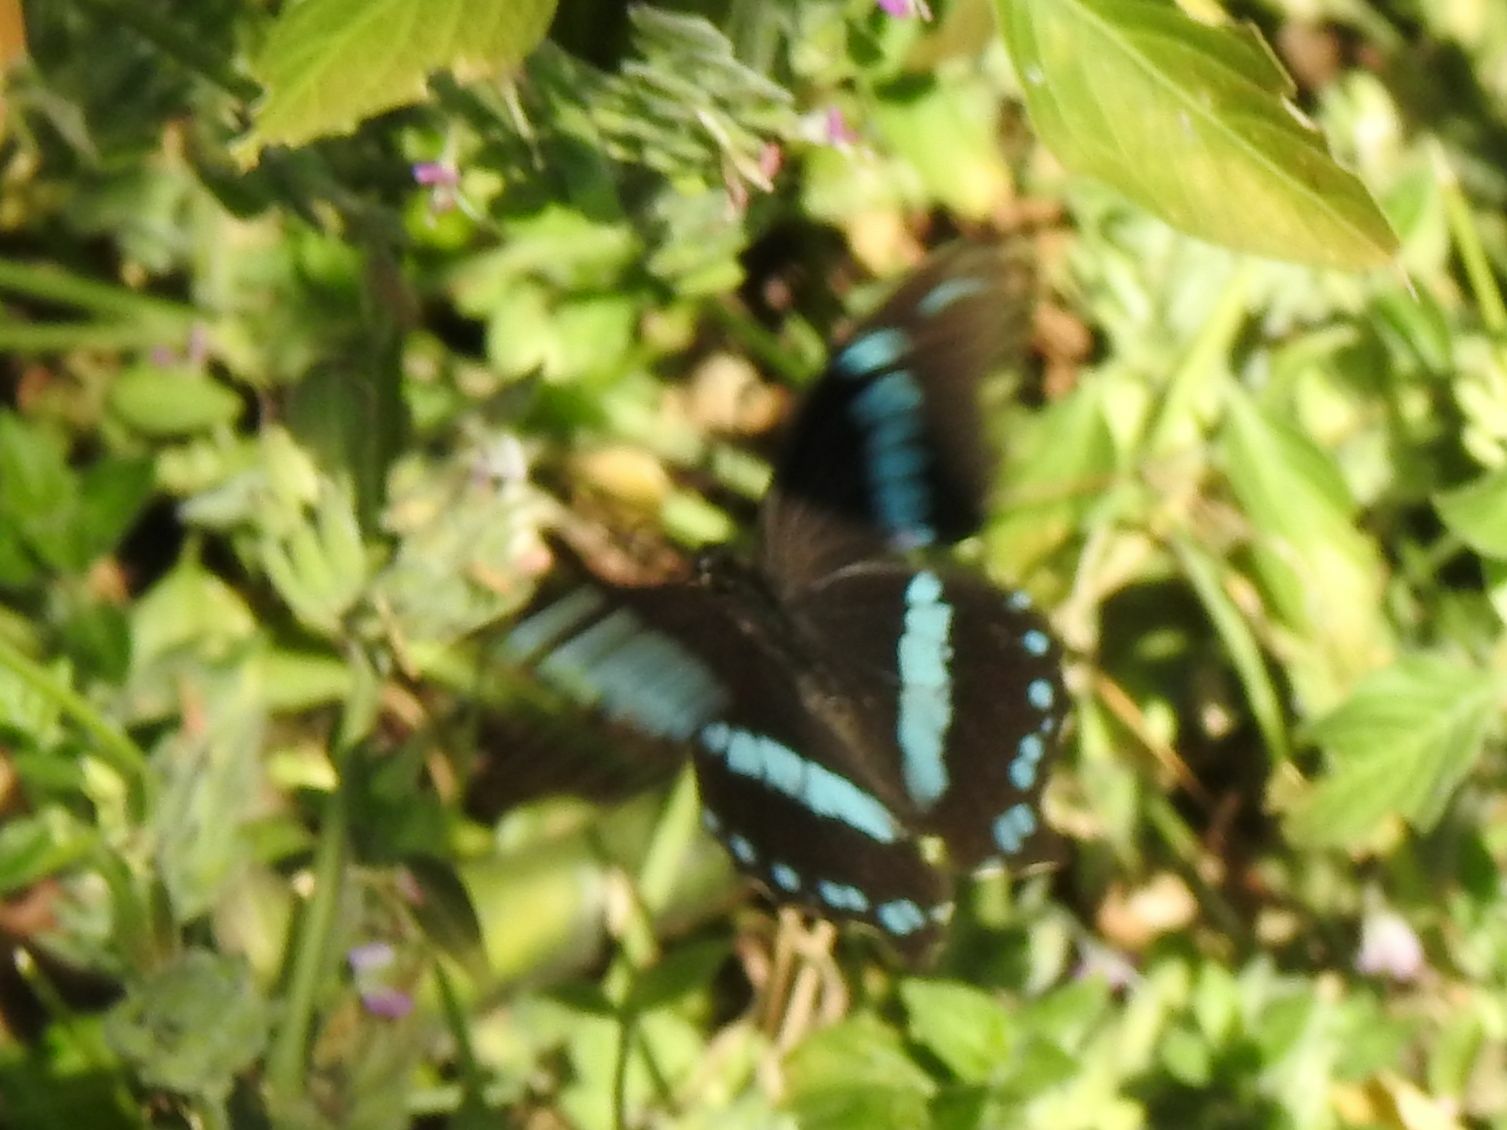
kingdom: Animalia
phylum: Arthropoda
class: Insecta
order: Lepidoptera
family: Papilionidae
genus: Papilio
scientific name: Papilio nireus
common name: Greenbanded swallowtail
